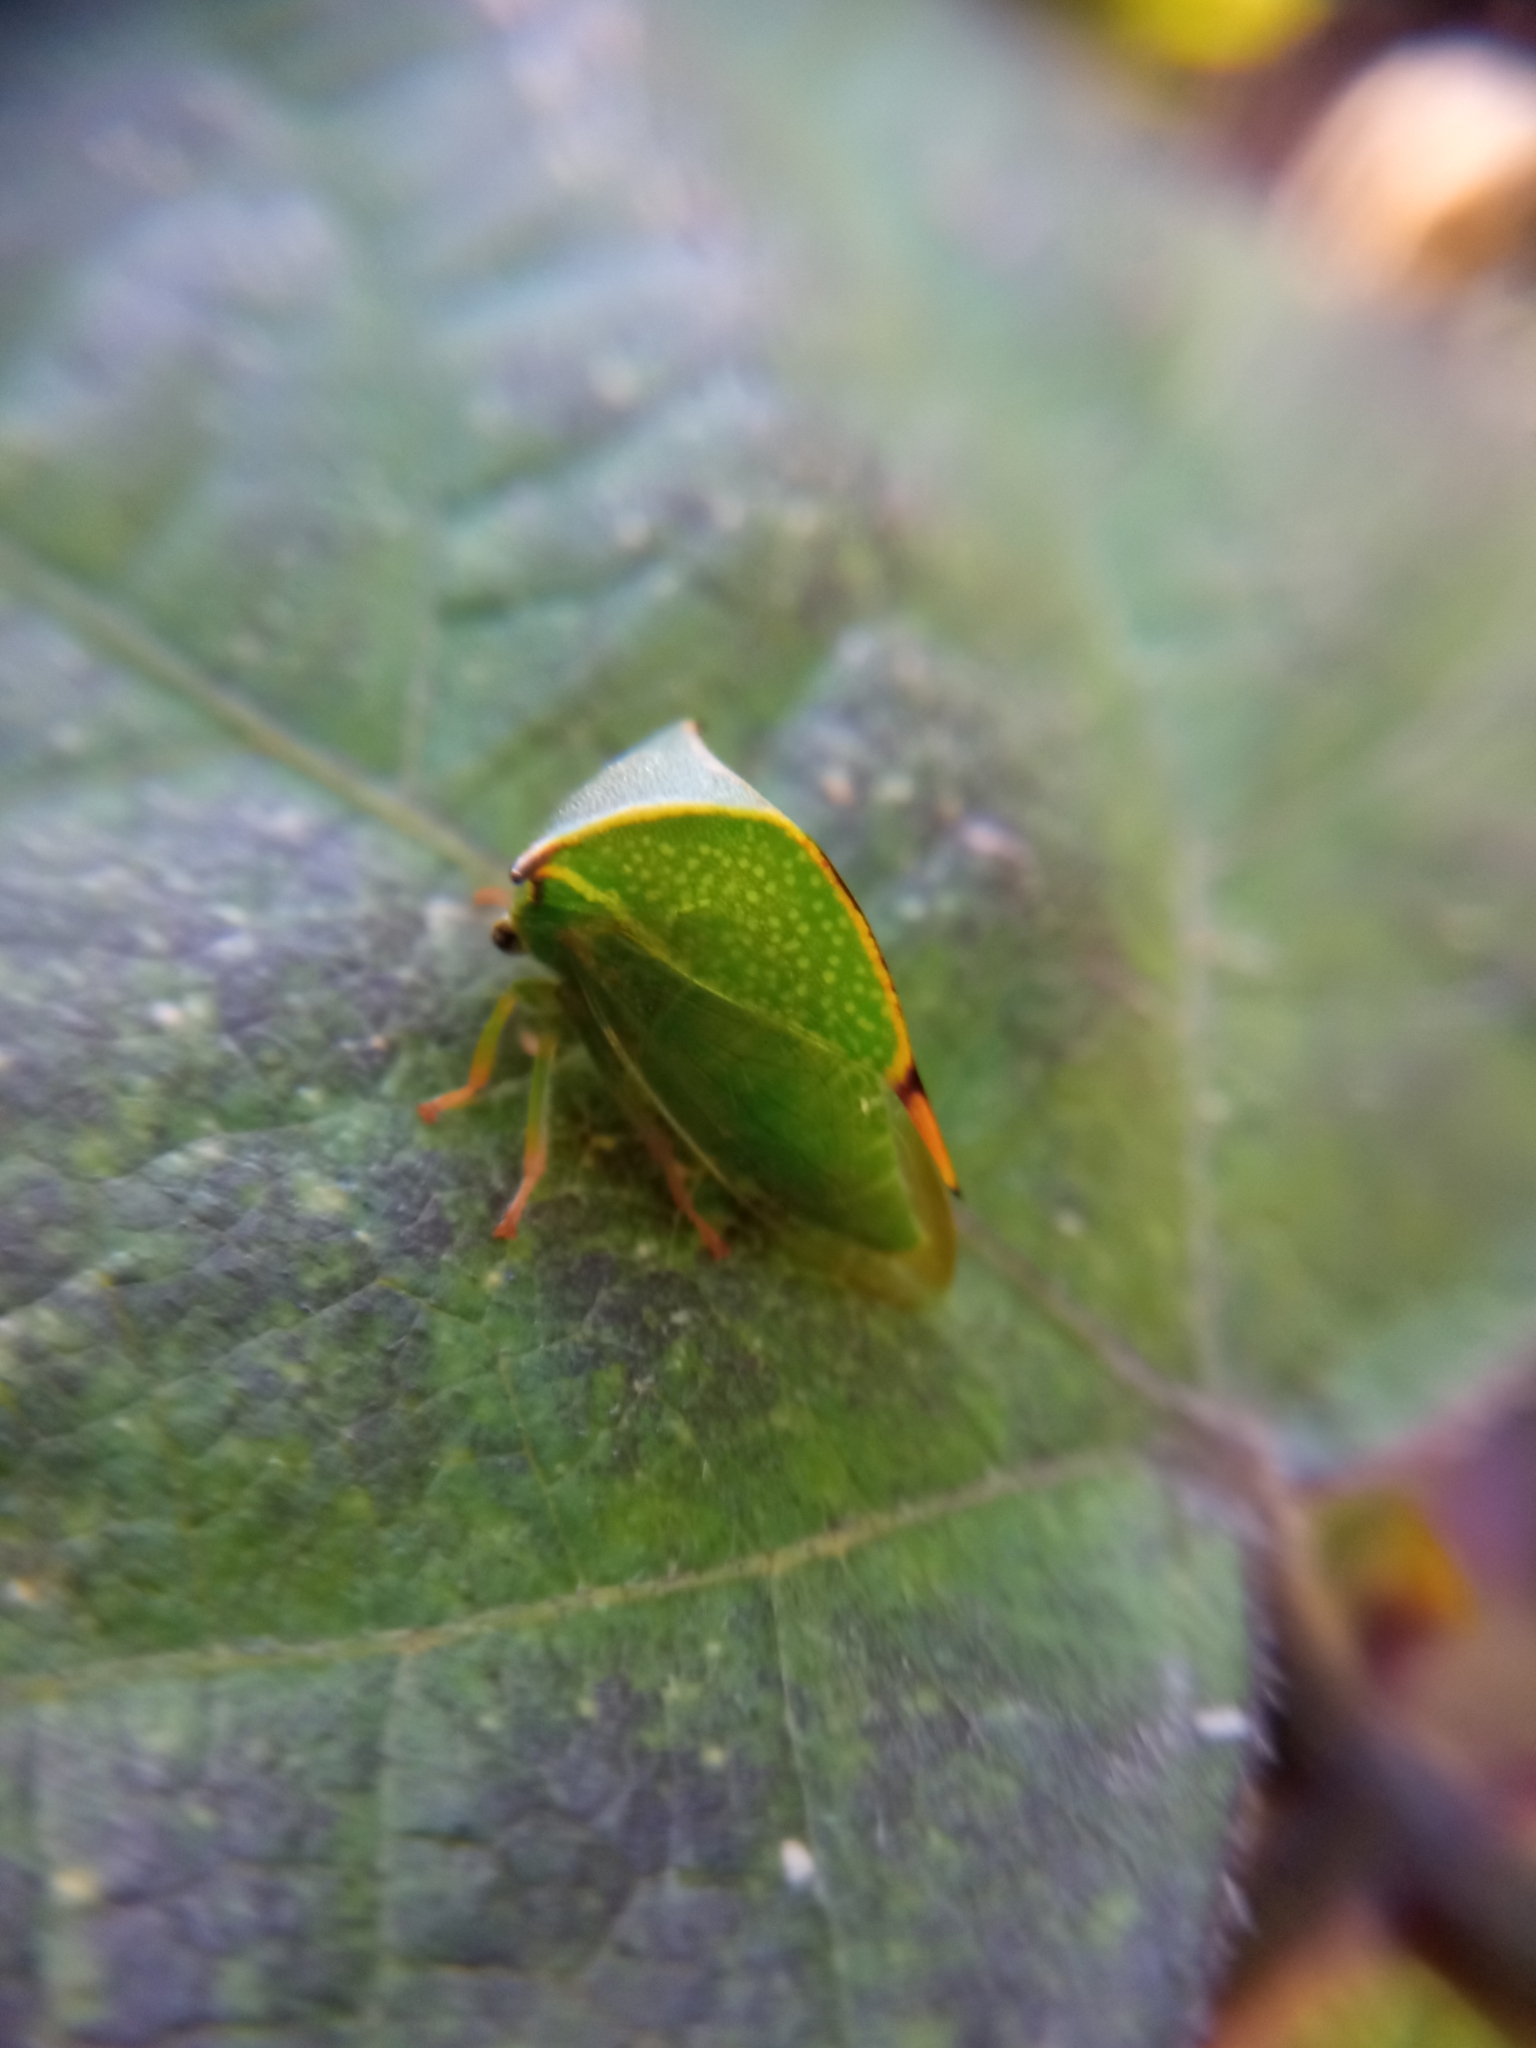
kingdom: Animalia
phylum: Arthropoda
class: Insecta
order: Hemiptera
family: Membracidae
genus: Stictocephala
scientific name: Stictocephala bisonia
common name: American buffalo treehopper
